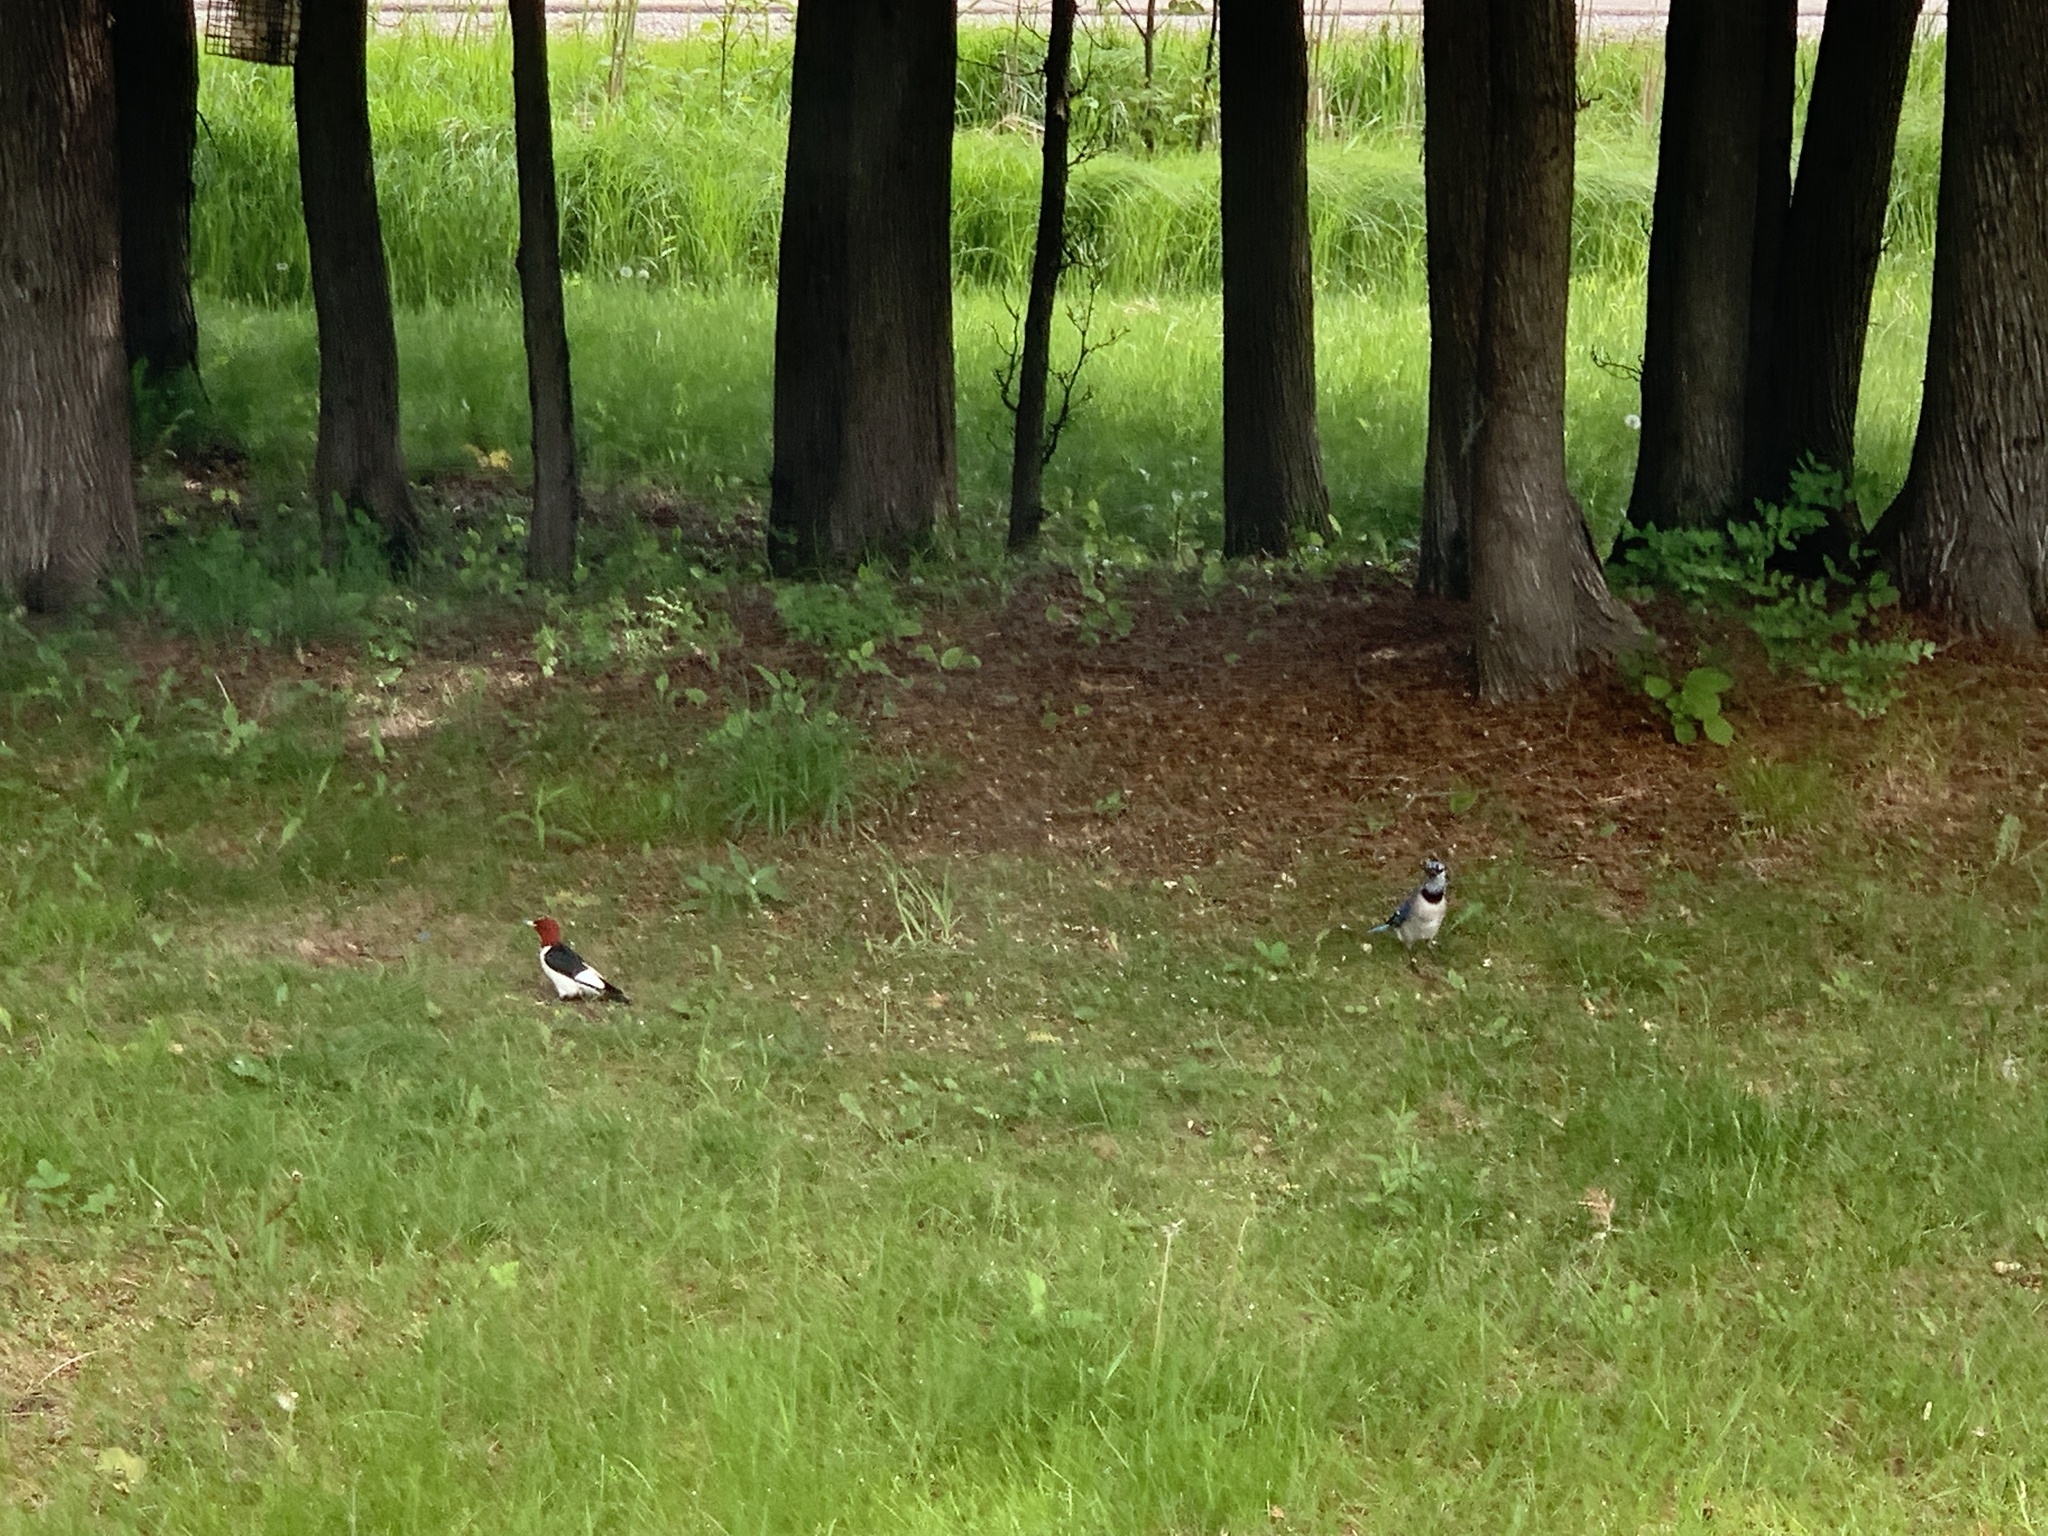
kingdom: Animalia
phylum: Chordata
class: Aves
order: Piciformes
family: Picidae
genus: Melanerpes
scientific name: Melanerpes erythrocephalus
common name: Red-headed woodpecker
